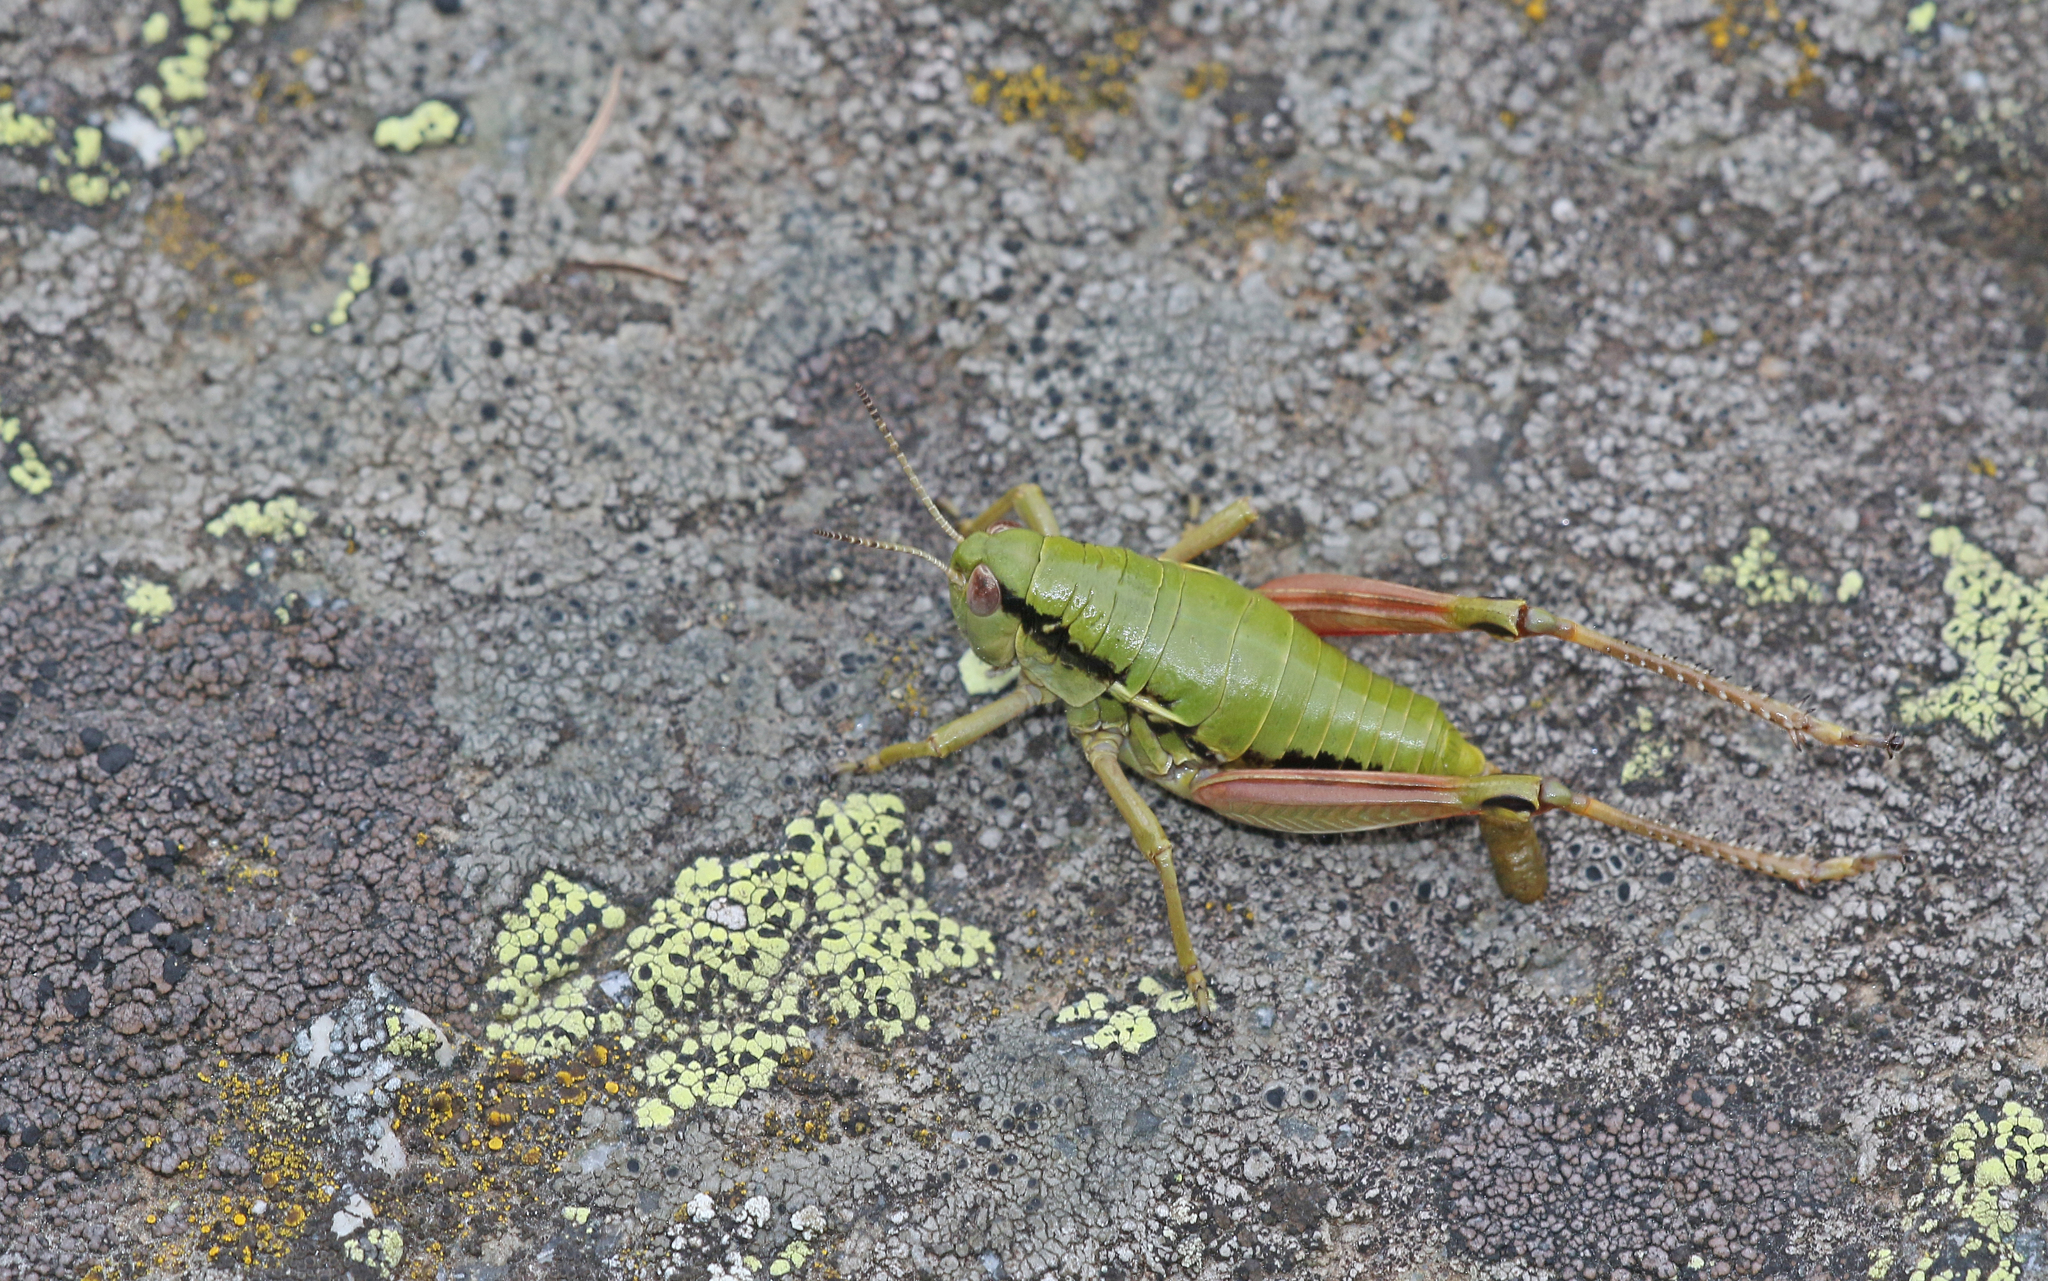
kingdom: Animalia
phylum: Arthropoda
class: Insecta
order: Orthoptera
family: Acrididae
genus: Epipodisma
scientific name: Epipodisma pedemontana
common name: Piedmont mountain grasshopper
